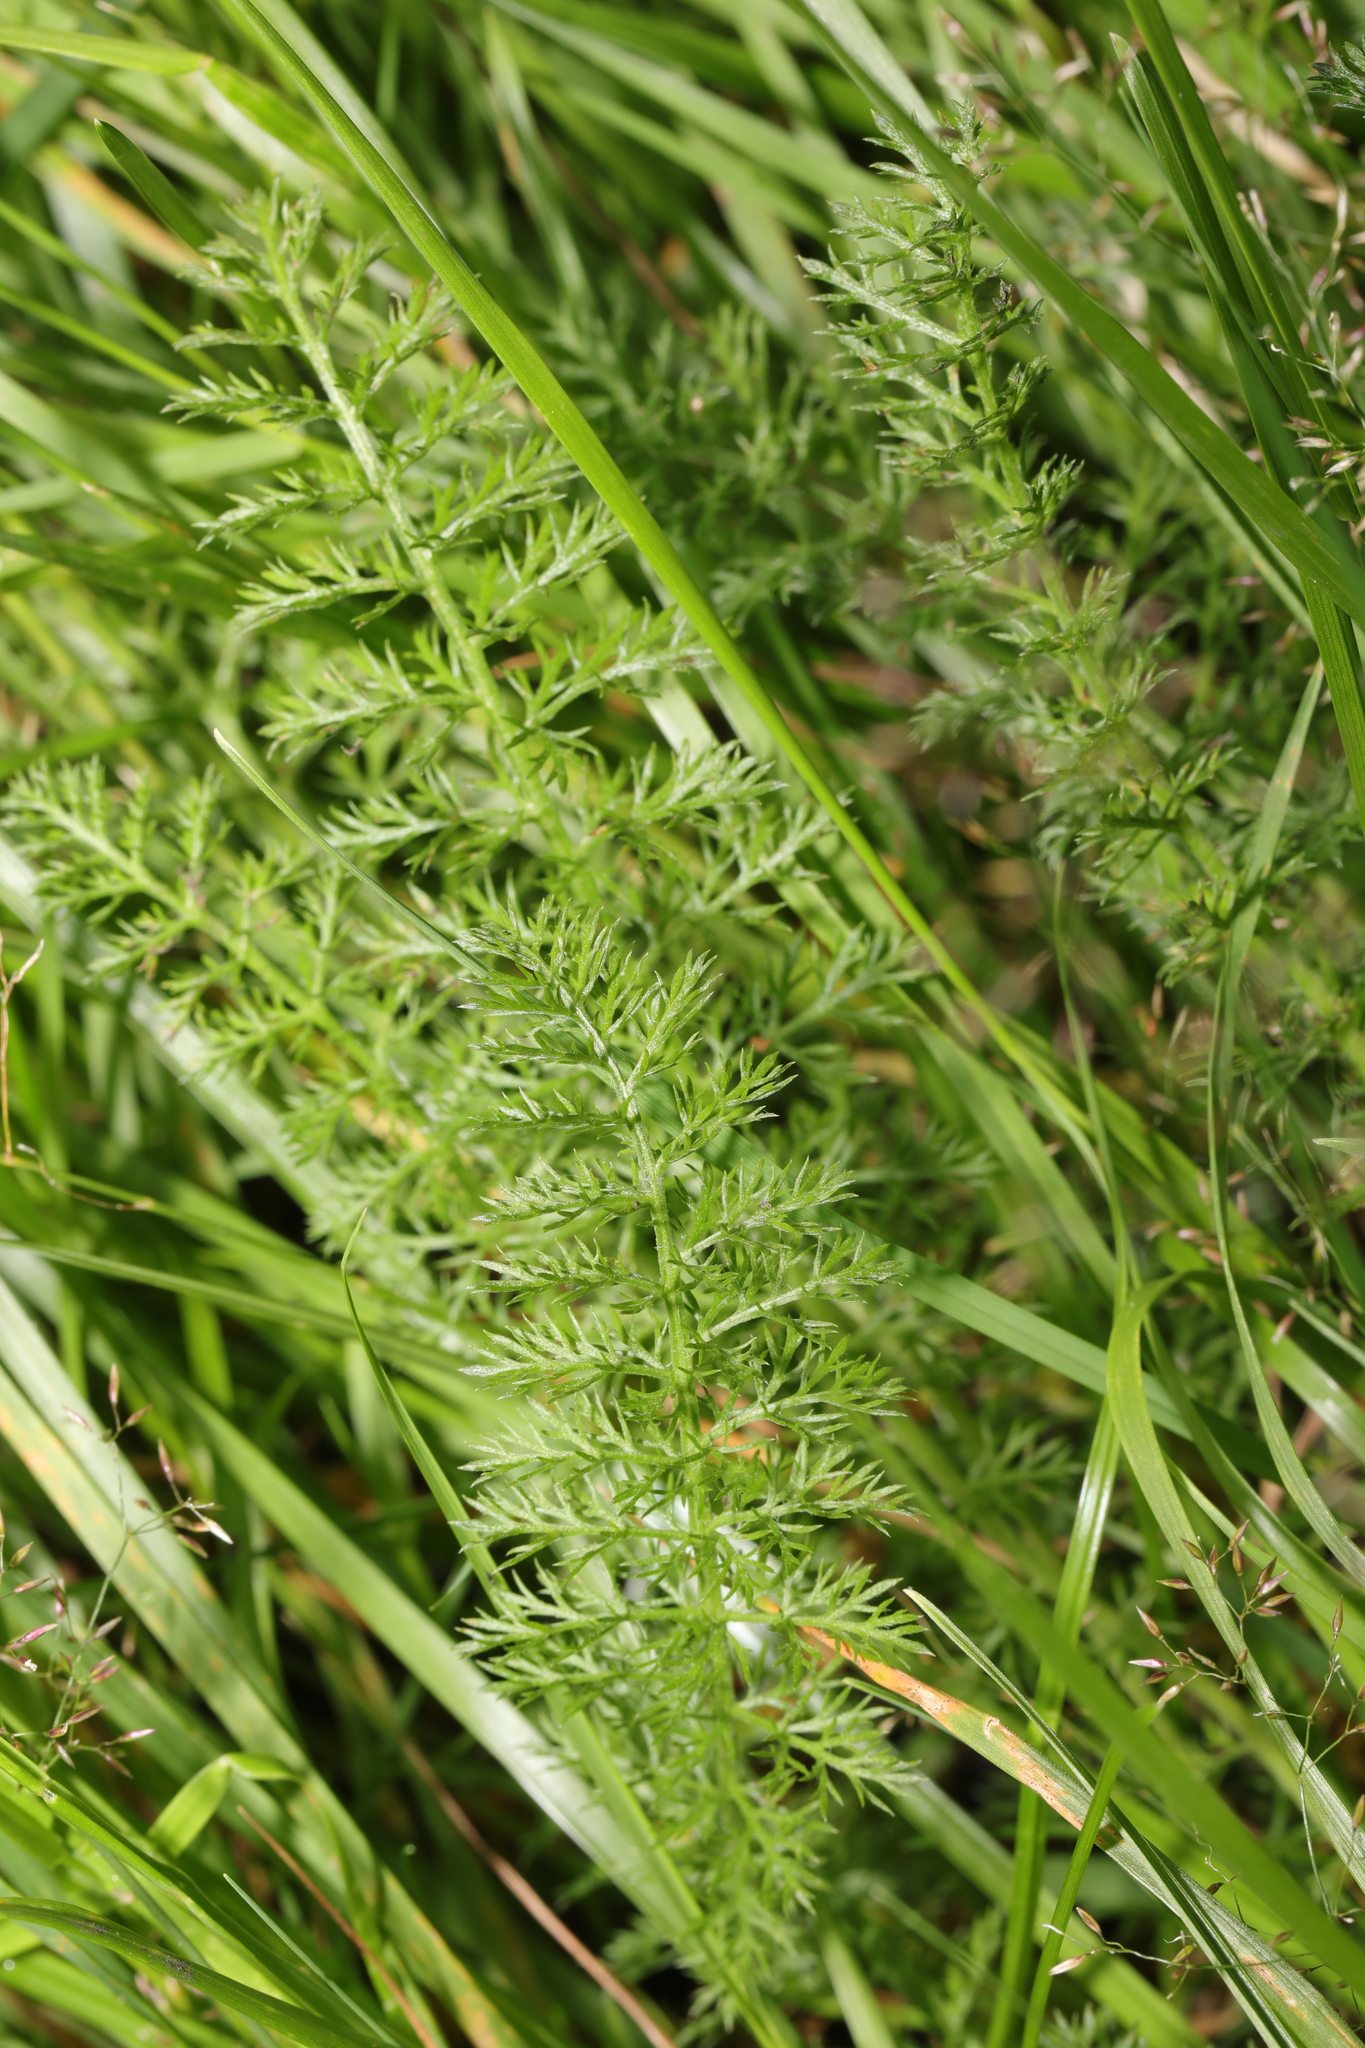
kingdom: Plantae
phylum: Tracheophyta
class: Magnoliopsida
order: Asterales
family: Asteraceae
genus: Achillea
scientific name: Achillea millefolium
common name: Yarrow
